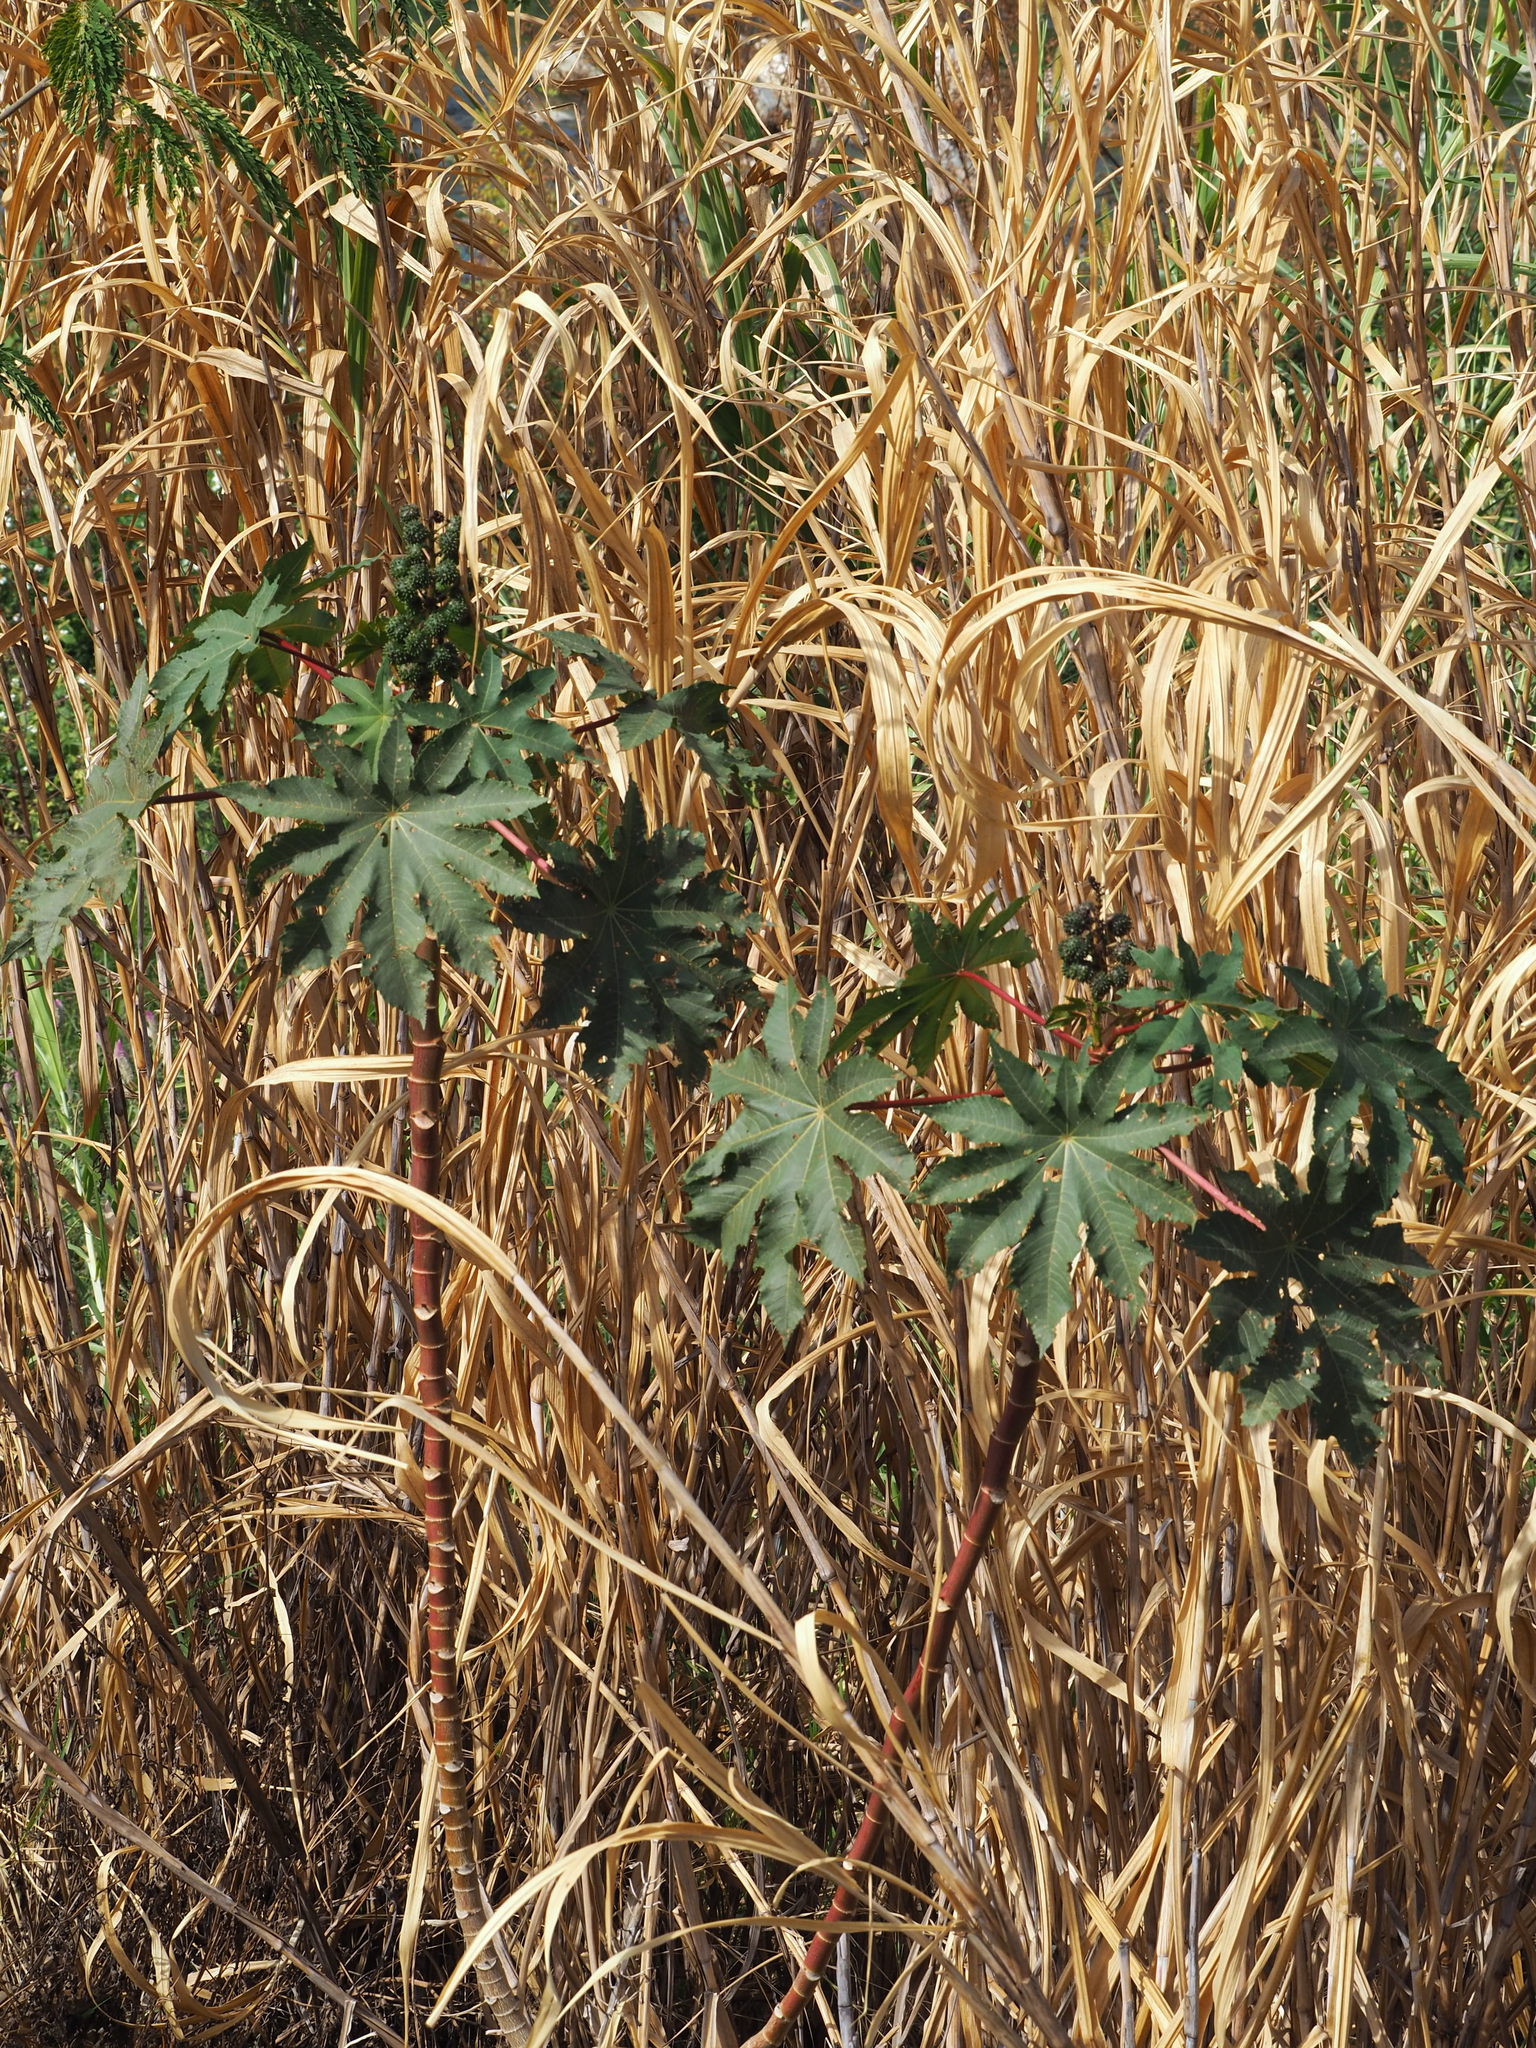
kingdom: Plantae
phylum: Tracheophyta
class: Magnoliopsida
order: Malpighiales
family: Euphorbiaceae
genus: Ricinus
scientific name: Ricinus communis
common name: Castor-oil-plant
